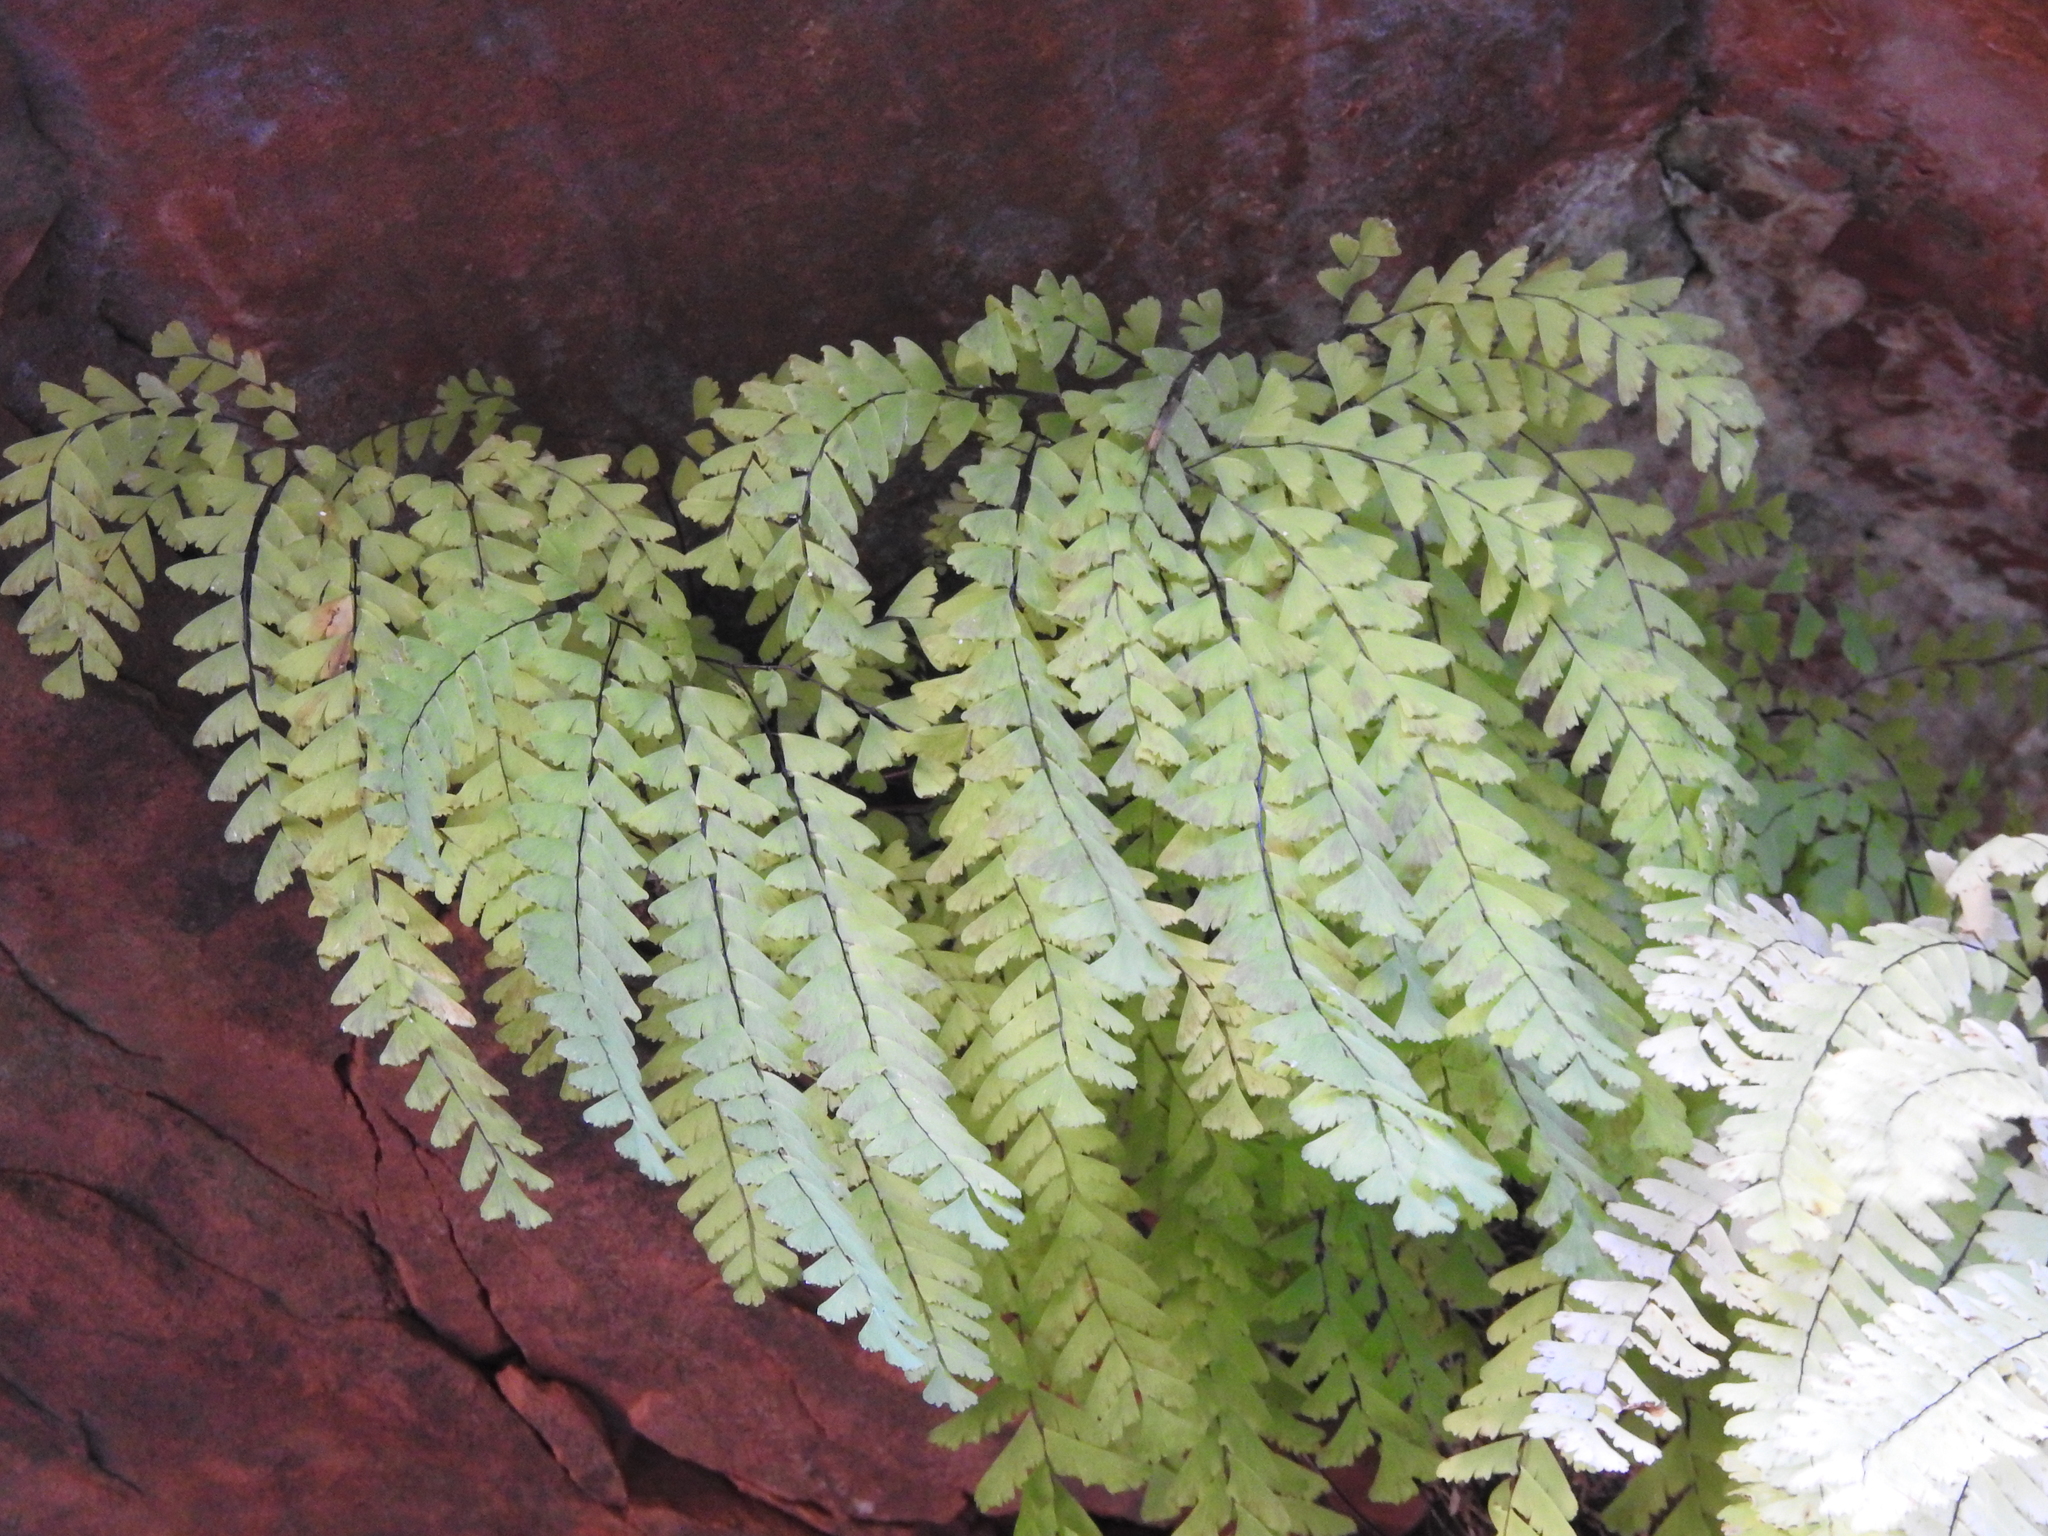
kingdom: Plantae
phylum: Tracheophyta
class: Polypodiopsida
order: Polypodiales
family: Pteridaceae
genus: Adiantum
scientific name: Adiantum aleuticum
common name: Aleutian maidenhair fern
